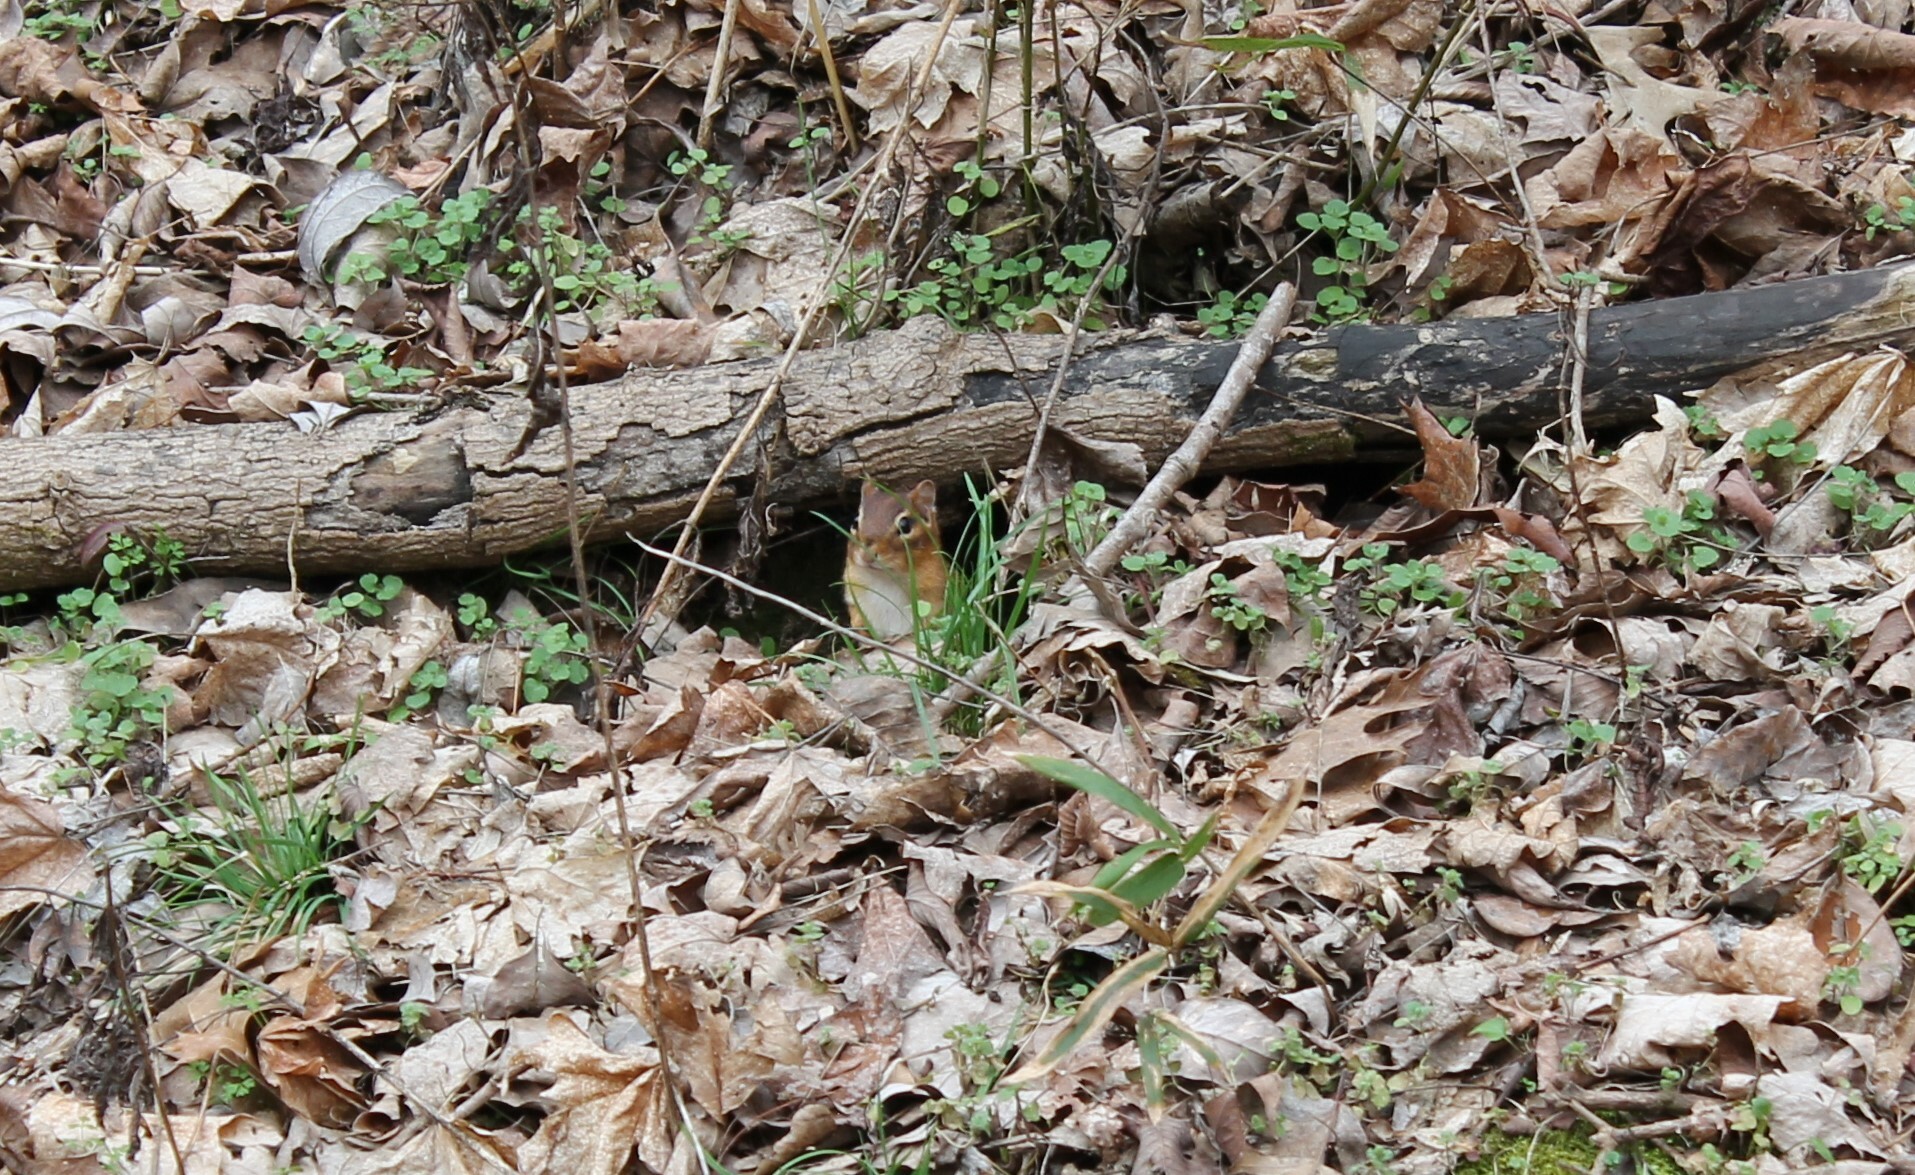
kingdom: Animalia
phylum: Chordata
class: Mammalia
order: Rodentia
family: Sciuridae
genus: Tamias
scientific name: Tamias striatus
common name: Eastern chipmunk
